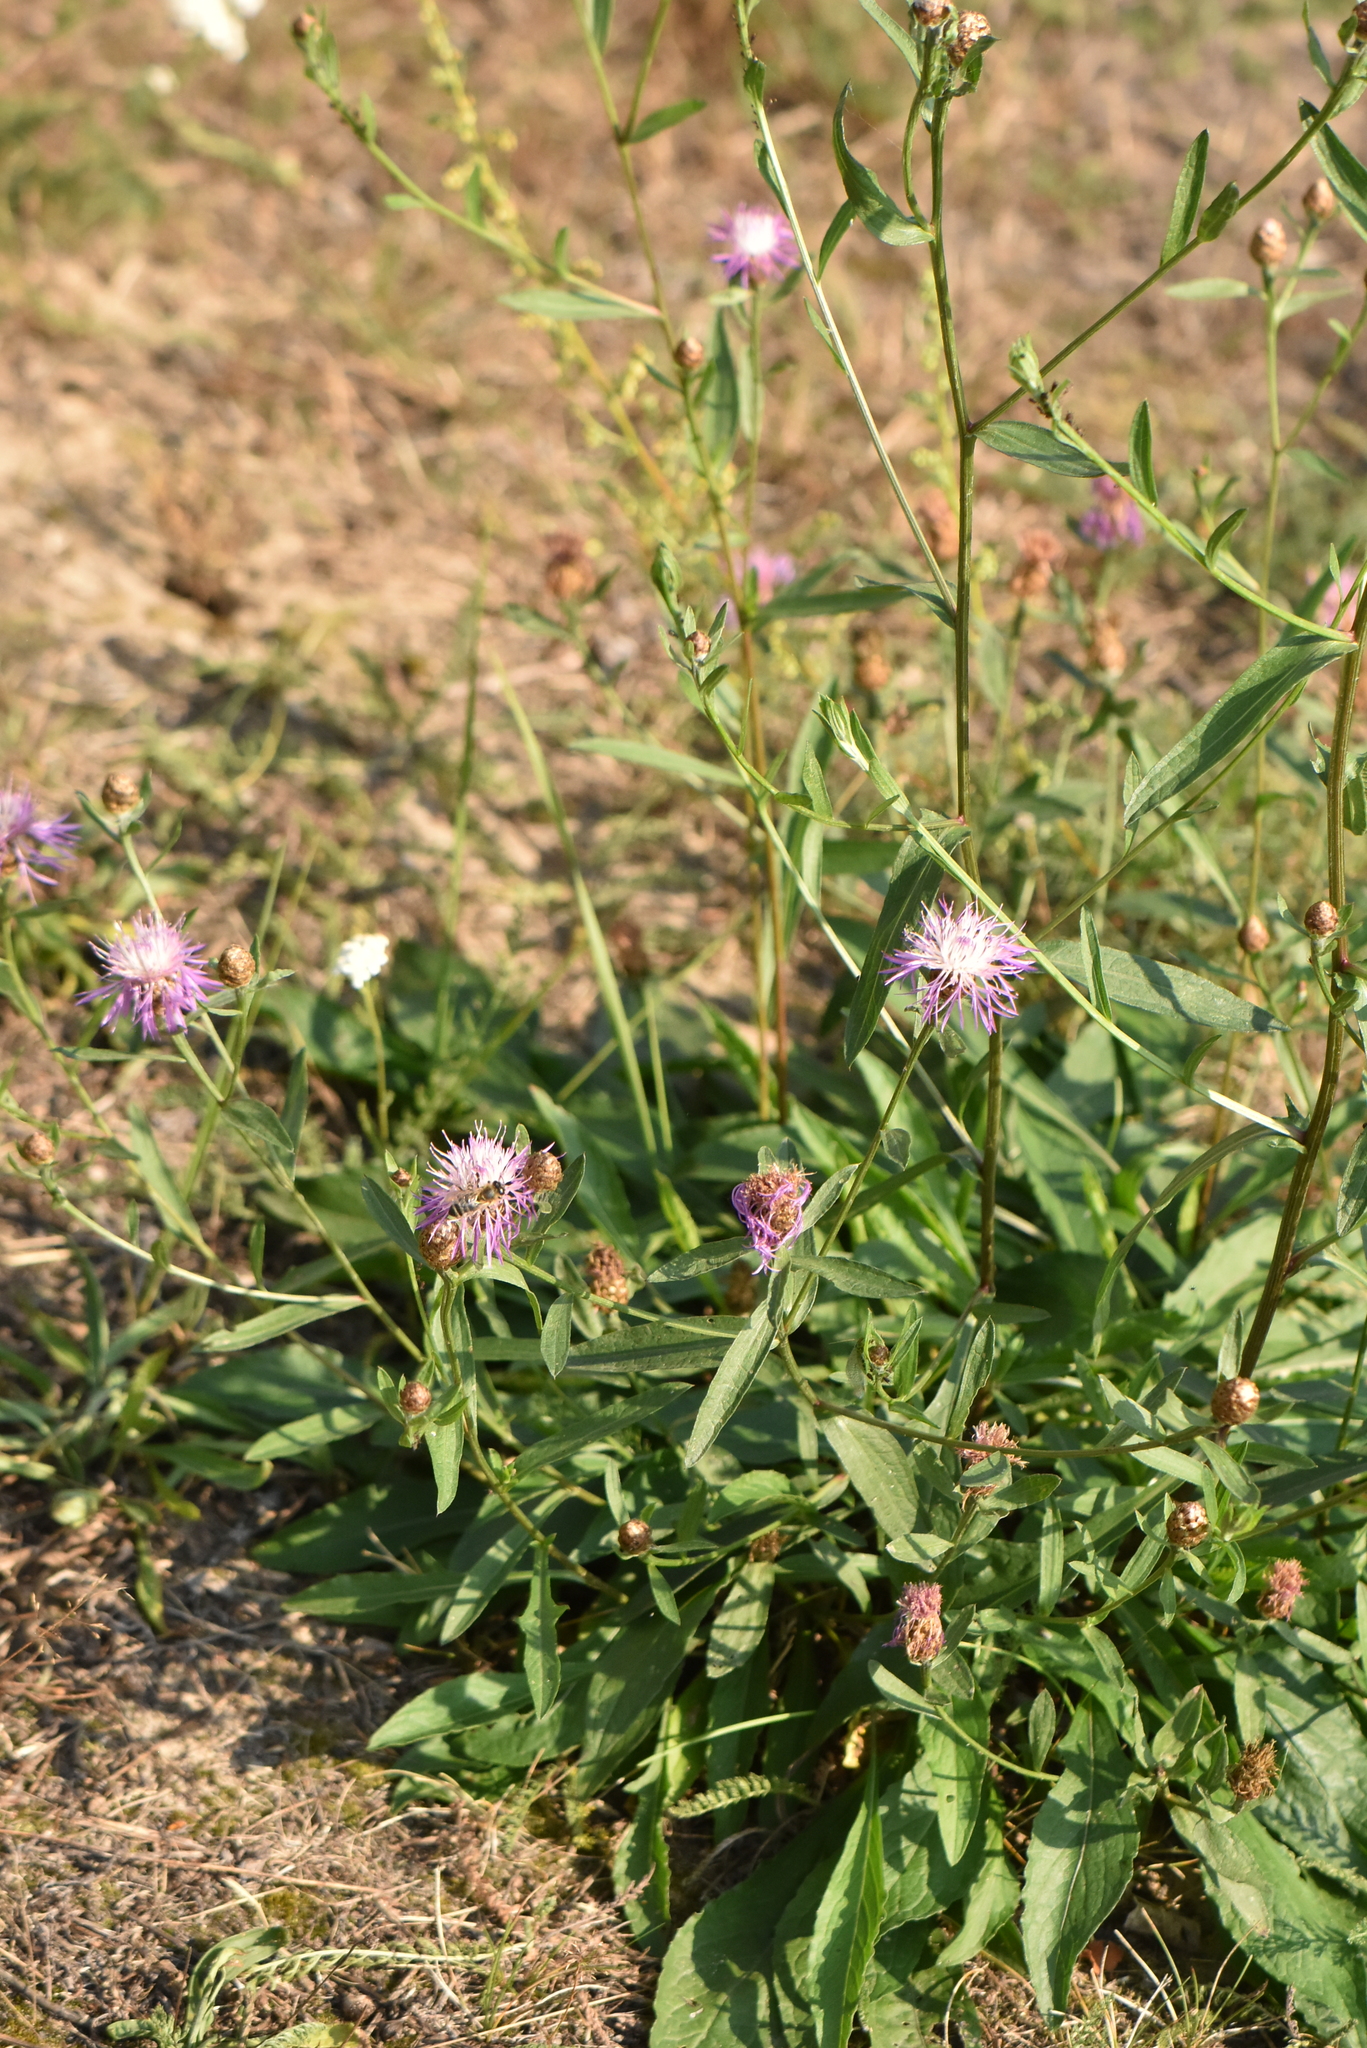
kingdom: Plantae
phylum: Tracheophyta
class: Magnoliopsida
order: Asterales
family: Asteraceae
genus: Centaurea
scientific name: Centaurea jacea
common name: Brown knapweed
